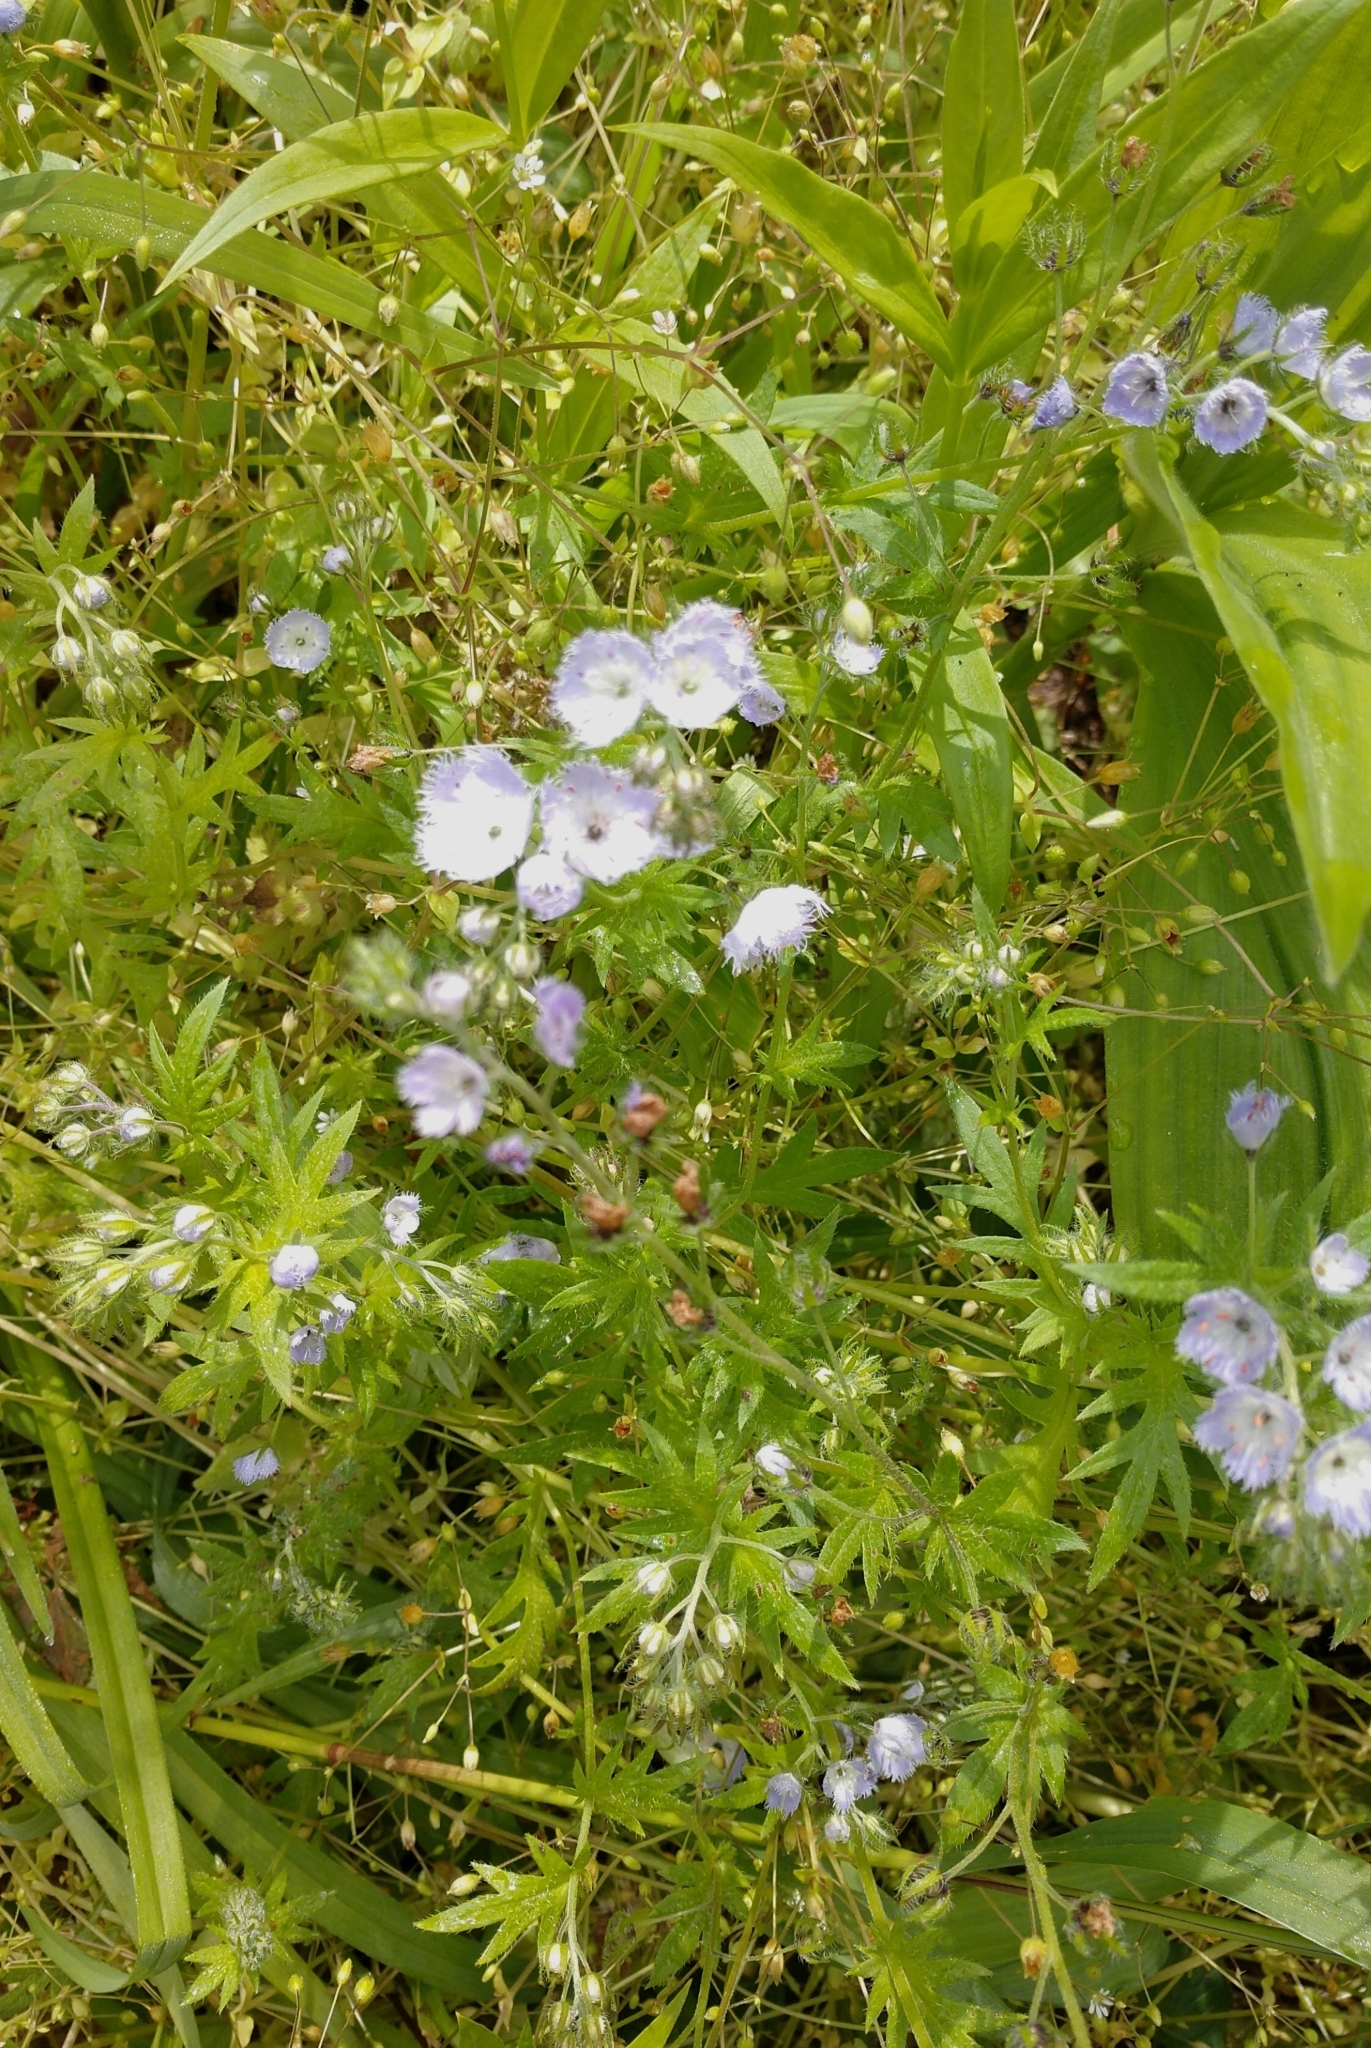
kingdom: Plantae
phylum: Tracheophyta
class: Magnoliopsida
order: Boraginales
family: Hydrophyllaceae
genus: Phacelia
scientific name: Phacelia purshii
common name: Miami-mist
